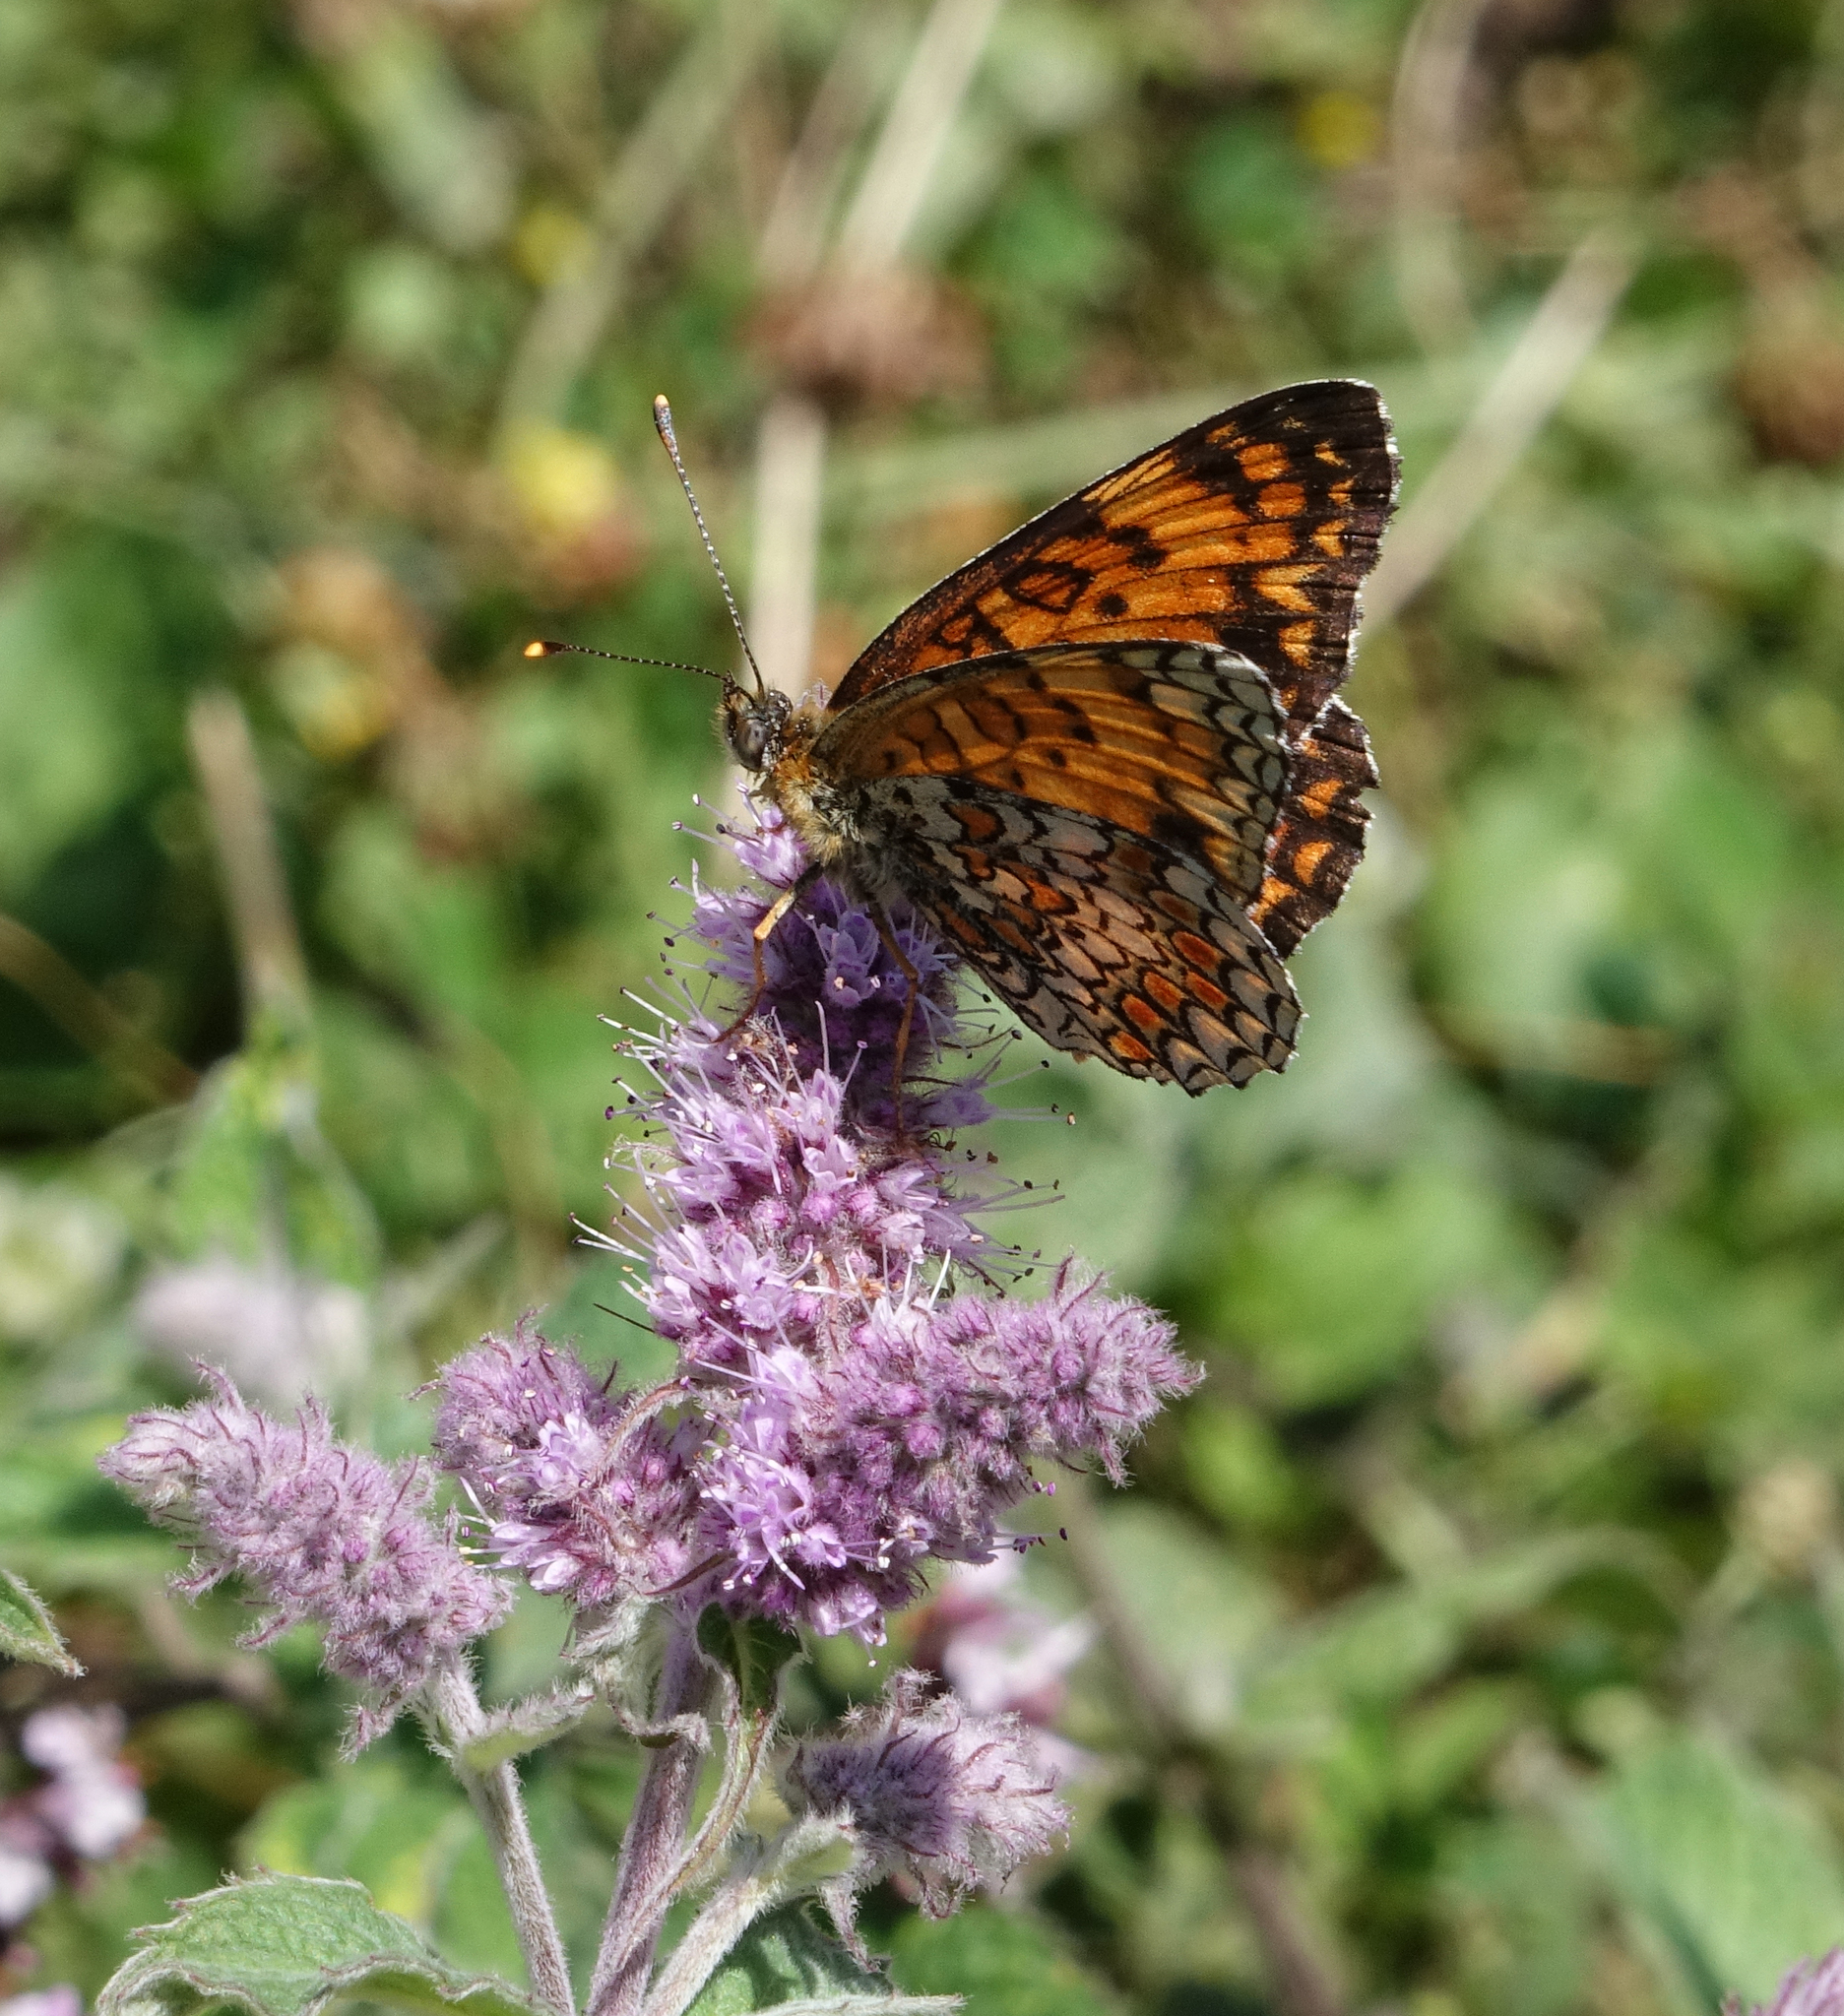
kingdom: Animalia
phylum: Arthropoda
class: Insecta
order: Lepidoptera
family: Nymphalidae
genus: Melitaea
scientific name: Melitaea phoebe
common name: Knapweed fritillary
